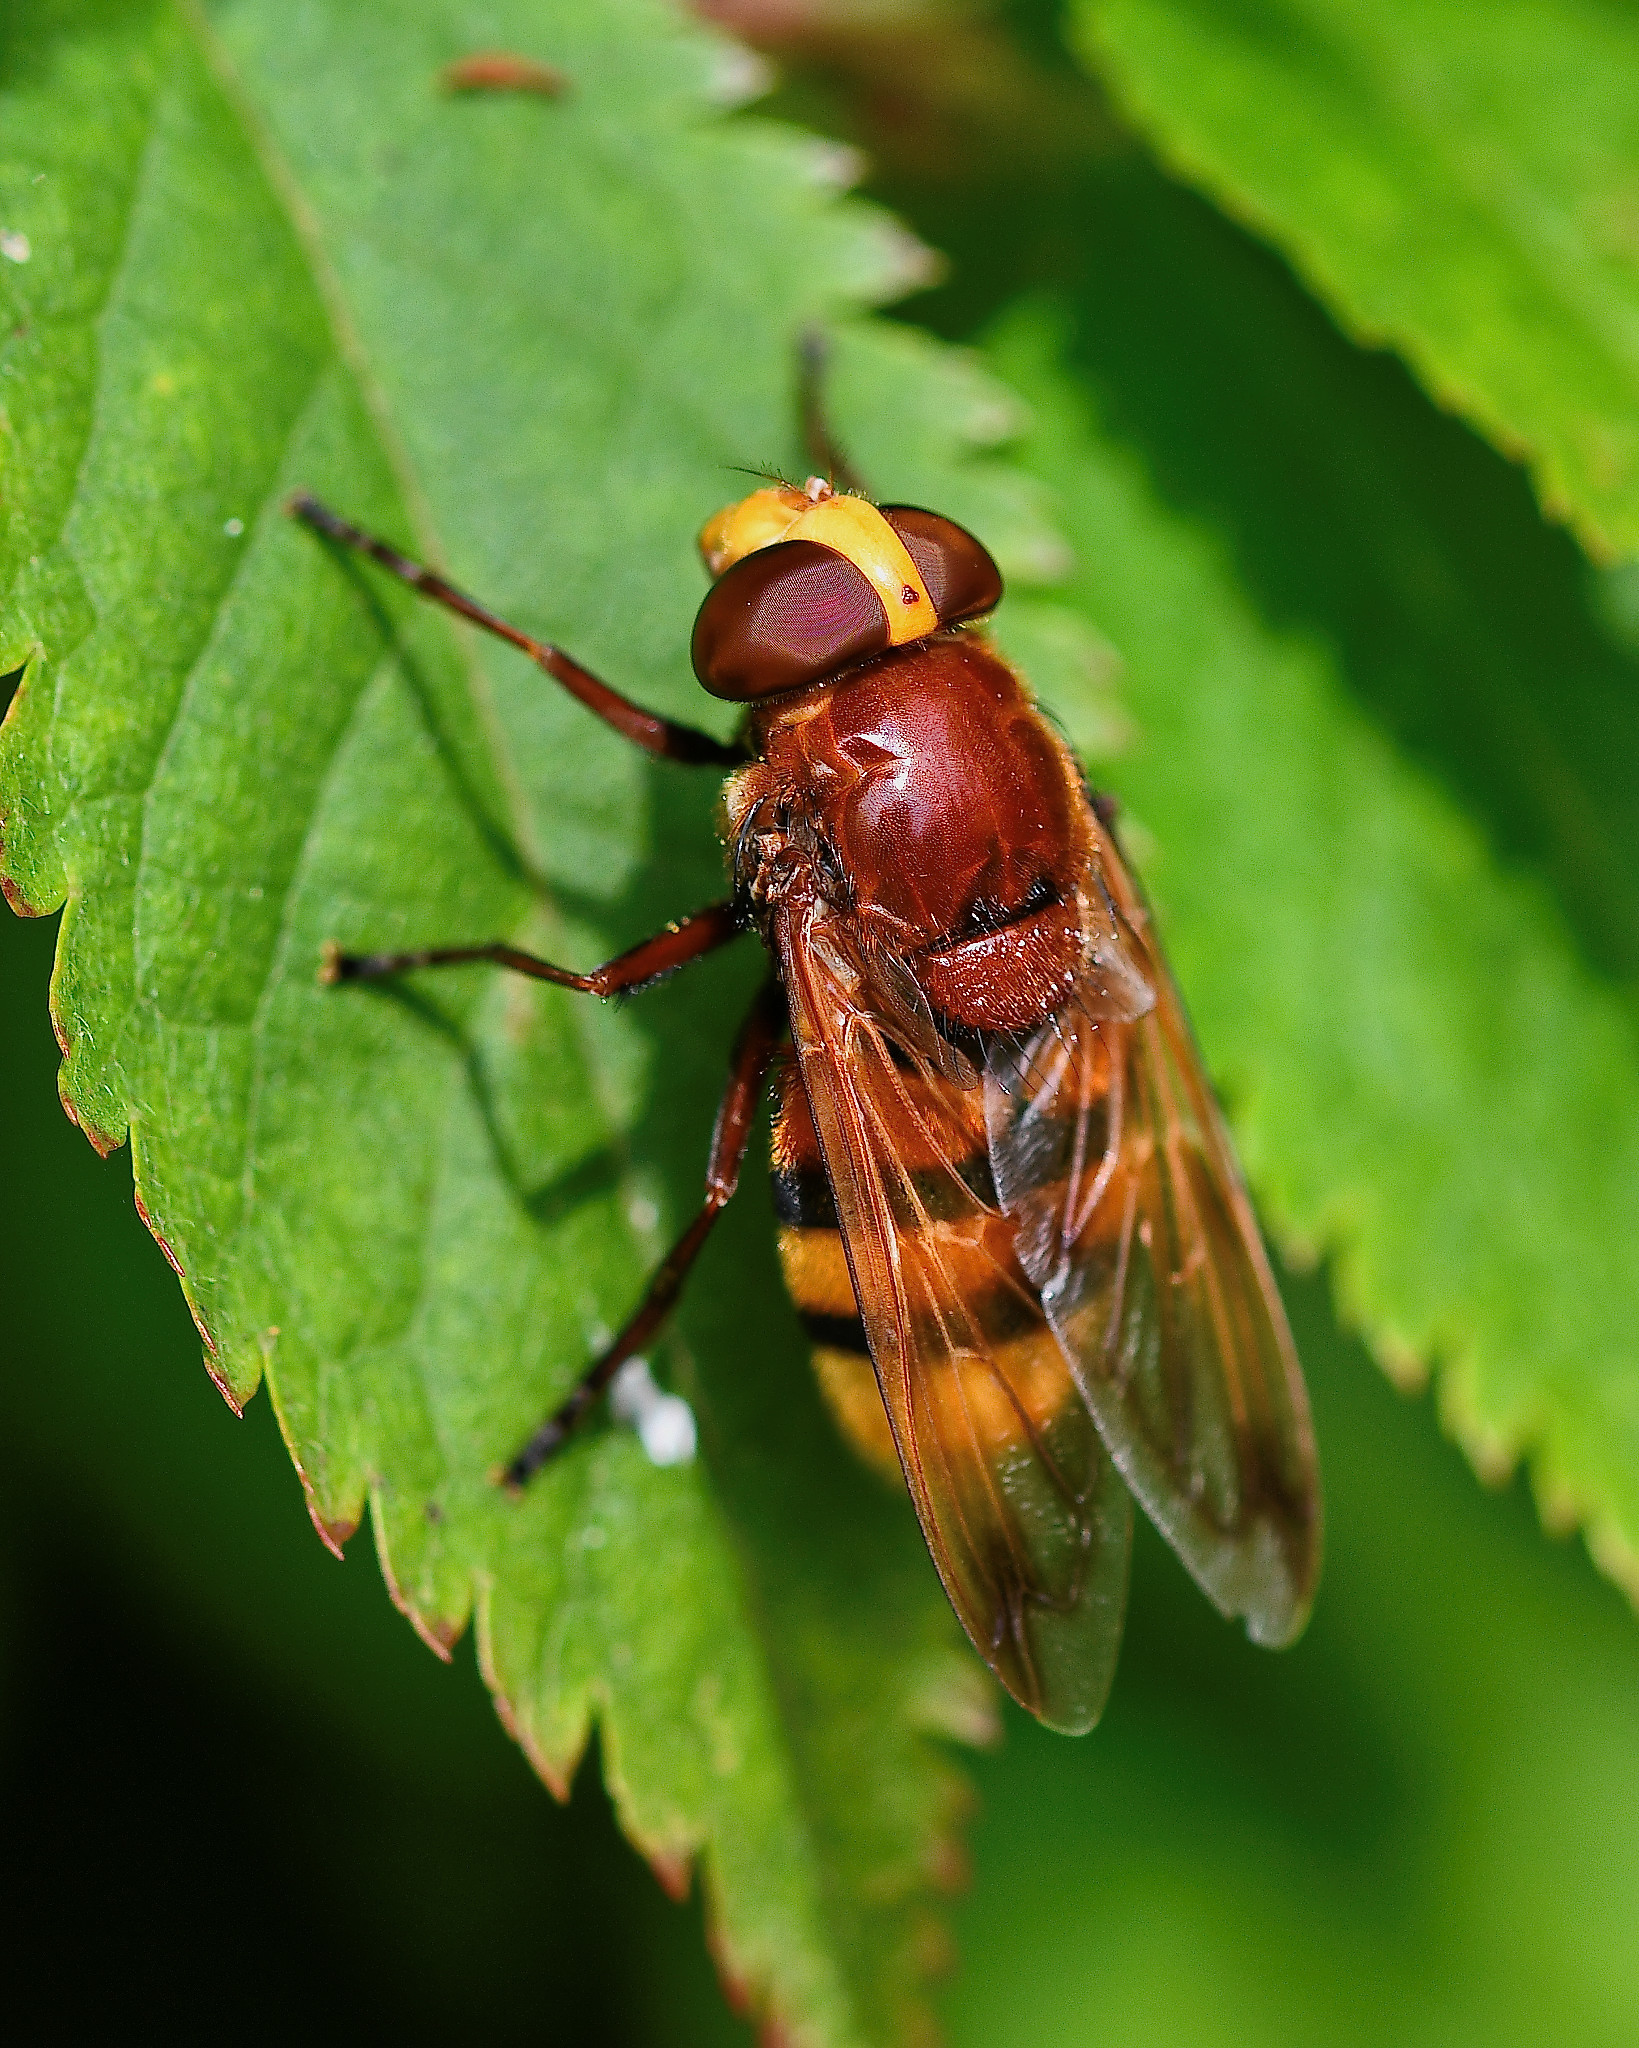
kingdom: Animalia
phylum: Arthropoda
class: Insecta
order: Diptera
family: Syrphidae
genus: Volucella
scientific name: Volucella zonaria
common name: Hornet hoverfly
